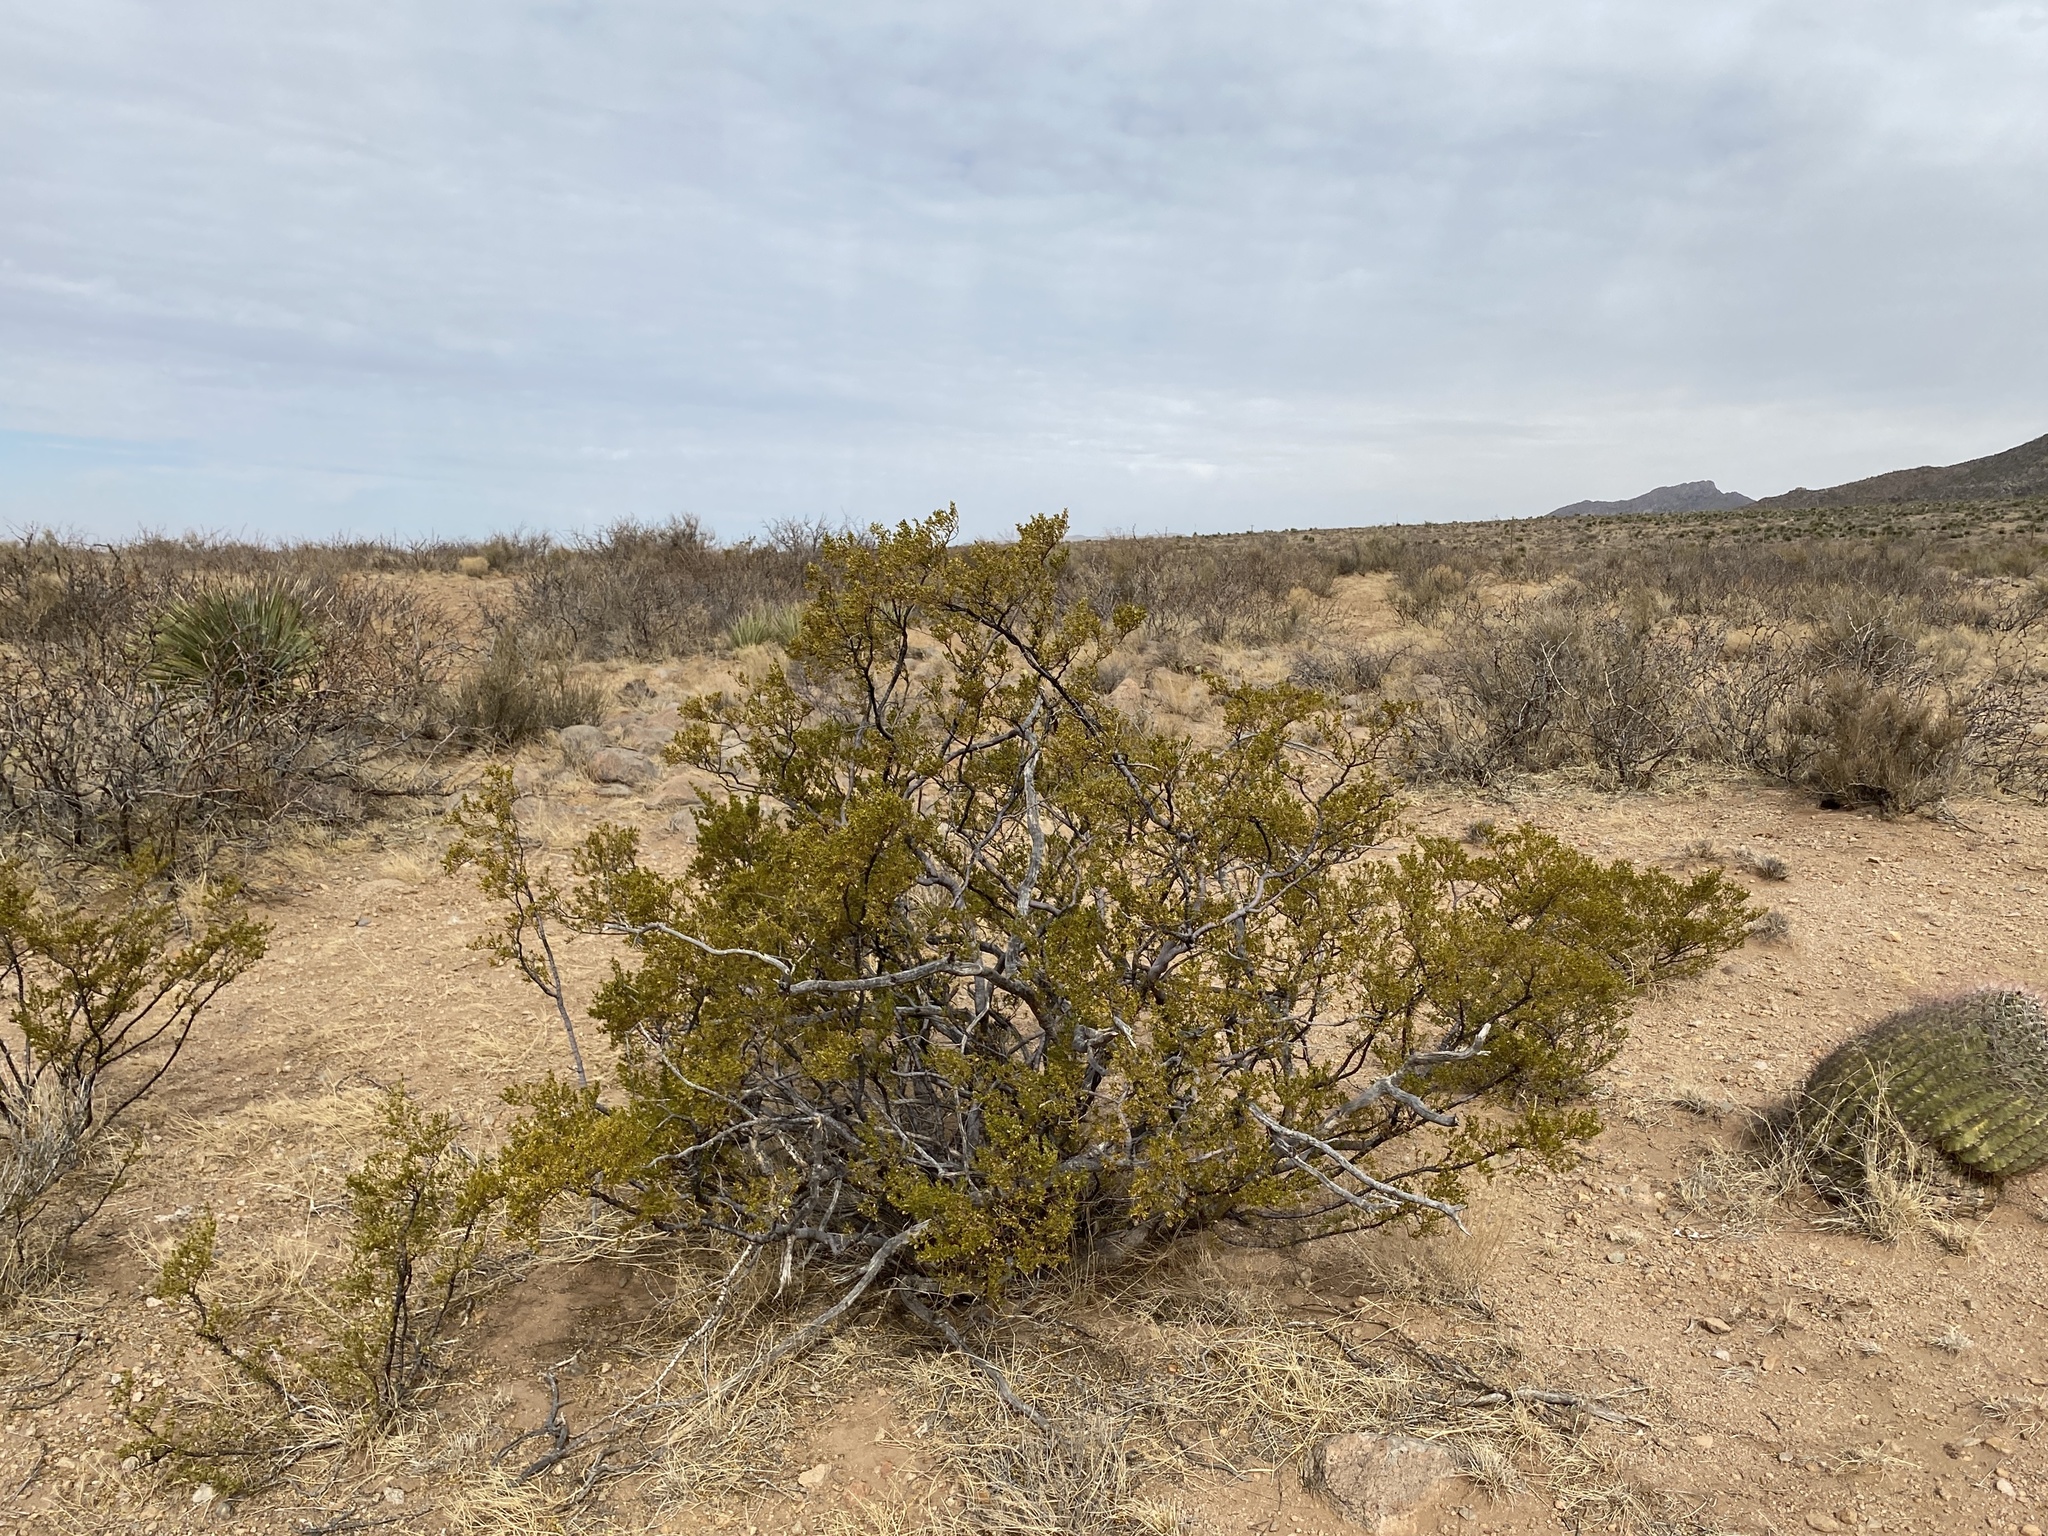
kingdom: Plantae
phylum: Tracheophyta
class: Magnoliopsida
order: Zygophyllales
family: Zygophyllaceae
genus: Larrea
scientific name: Larrea tridentata
